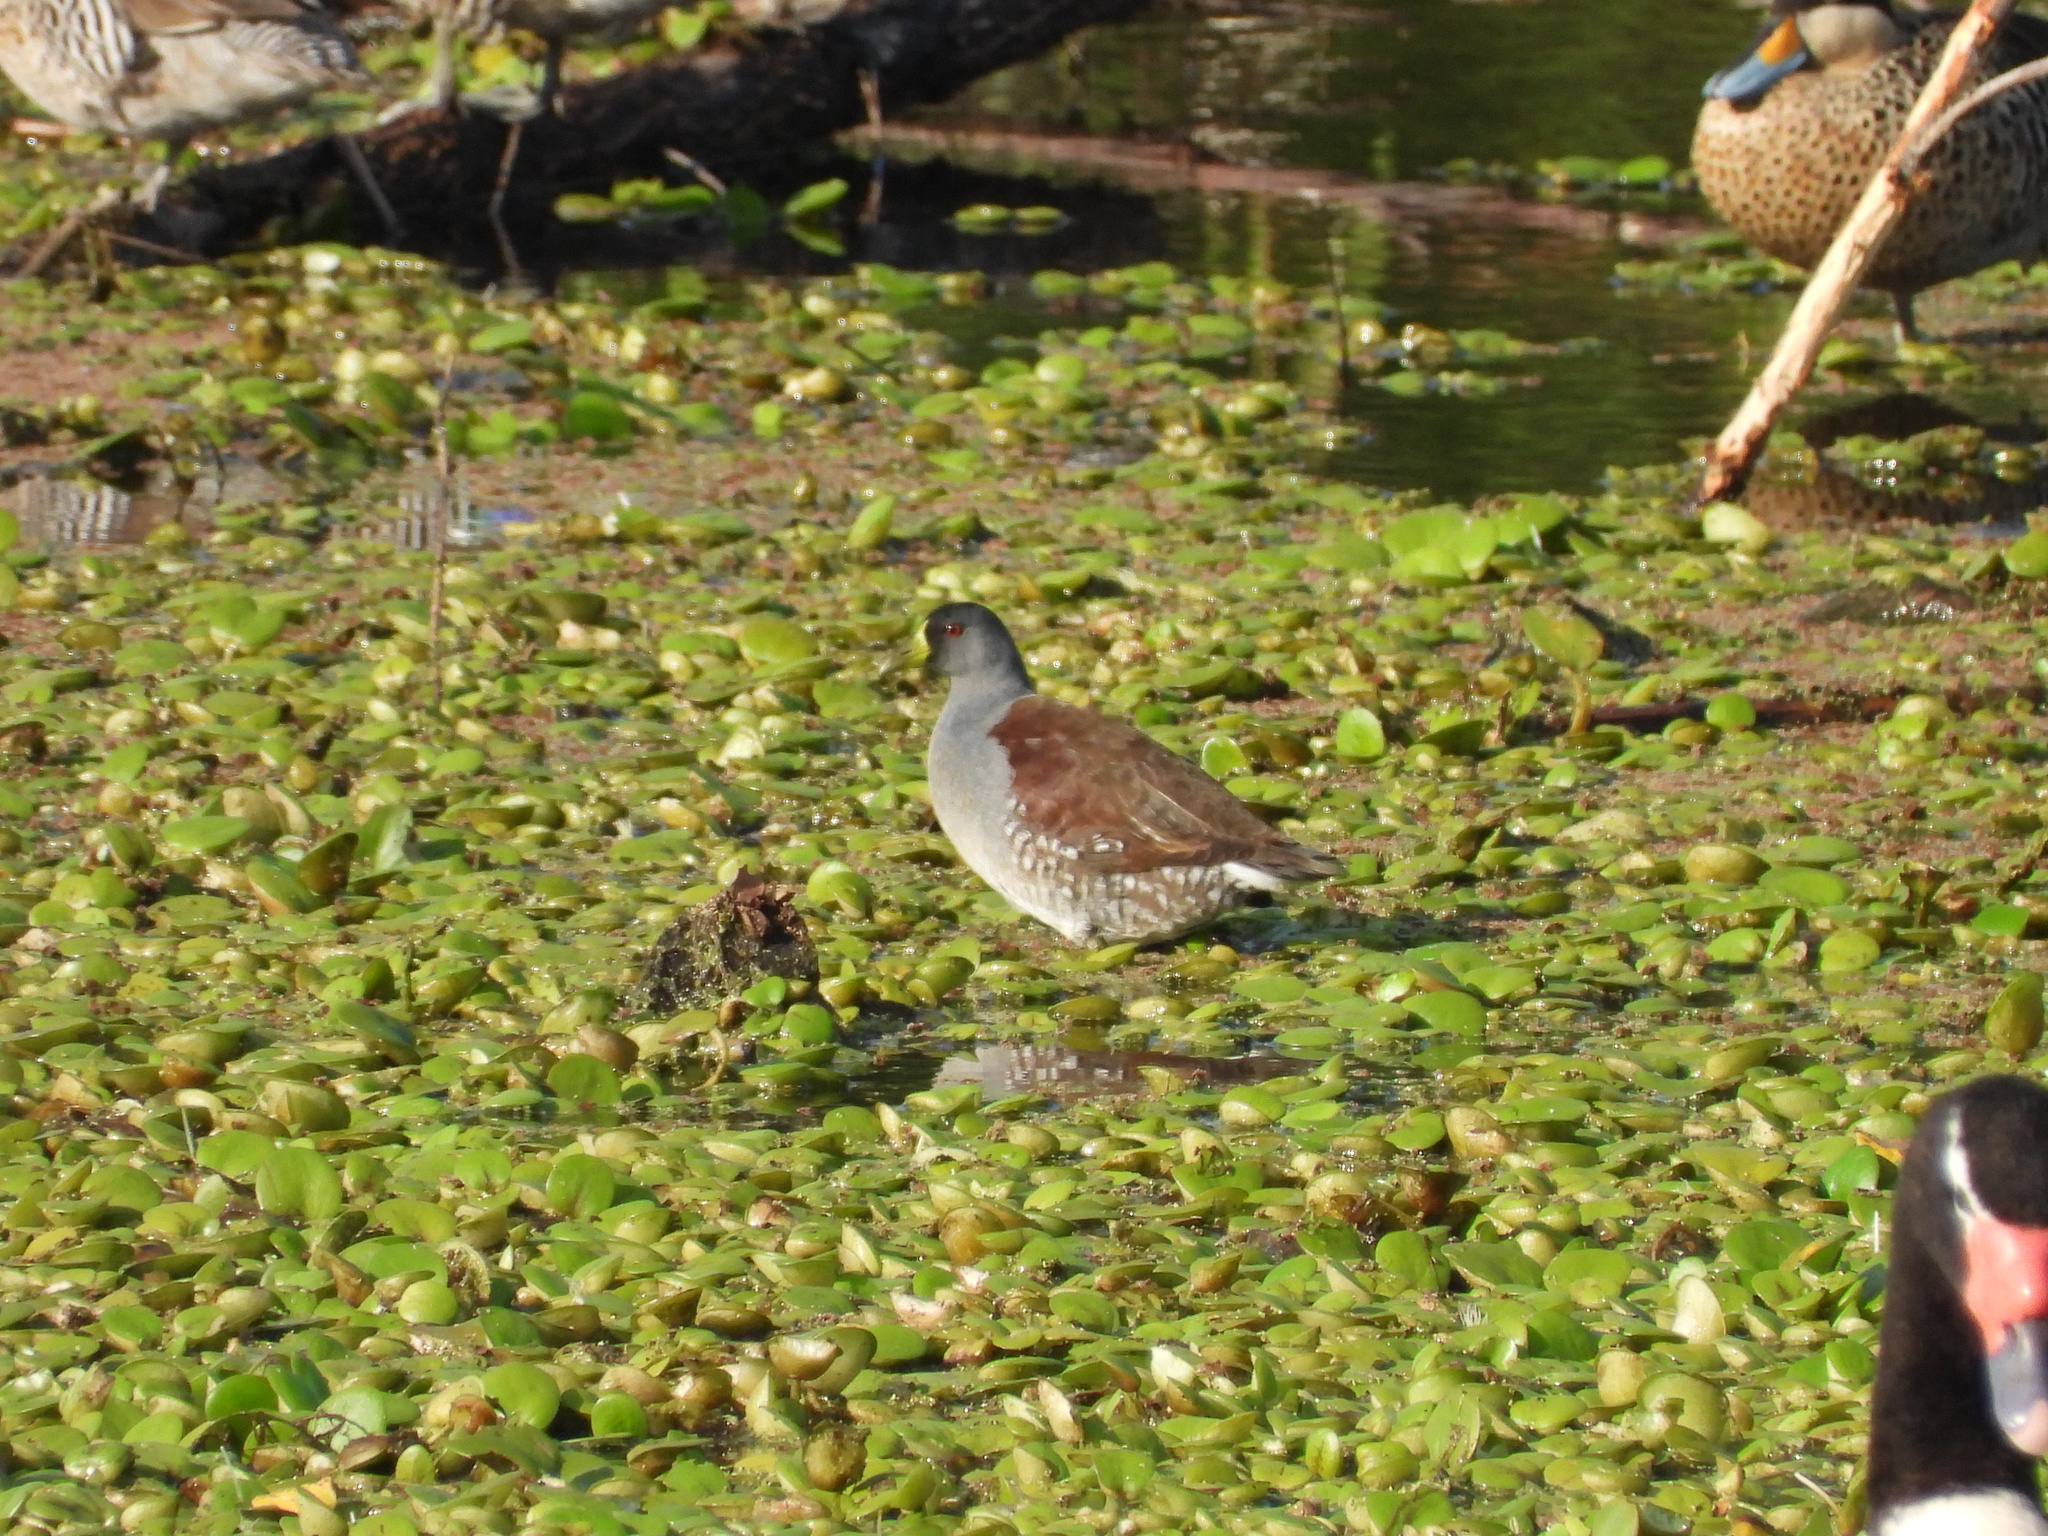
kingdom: Animalia
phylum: Chordata
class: Aves
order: Gruiformes
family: Rallidae
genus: Gallinula
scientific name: Gallinula melanops
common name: Spot-flanked gallinule
